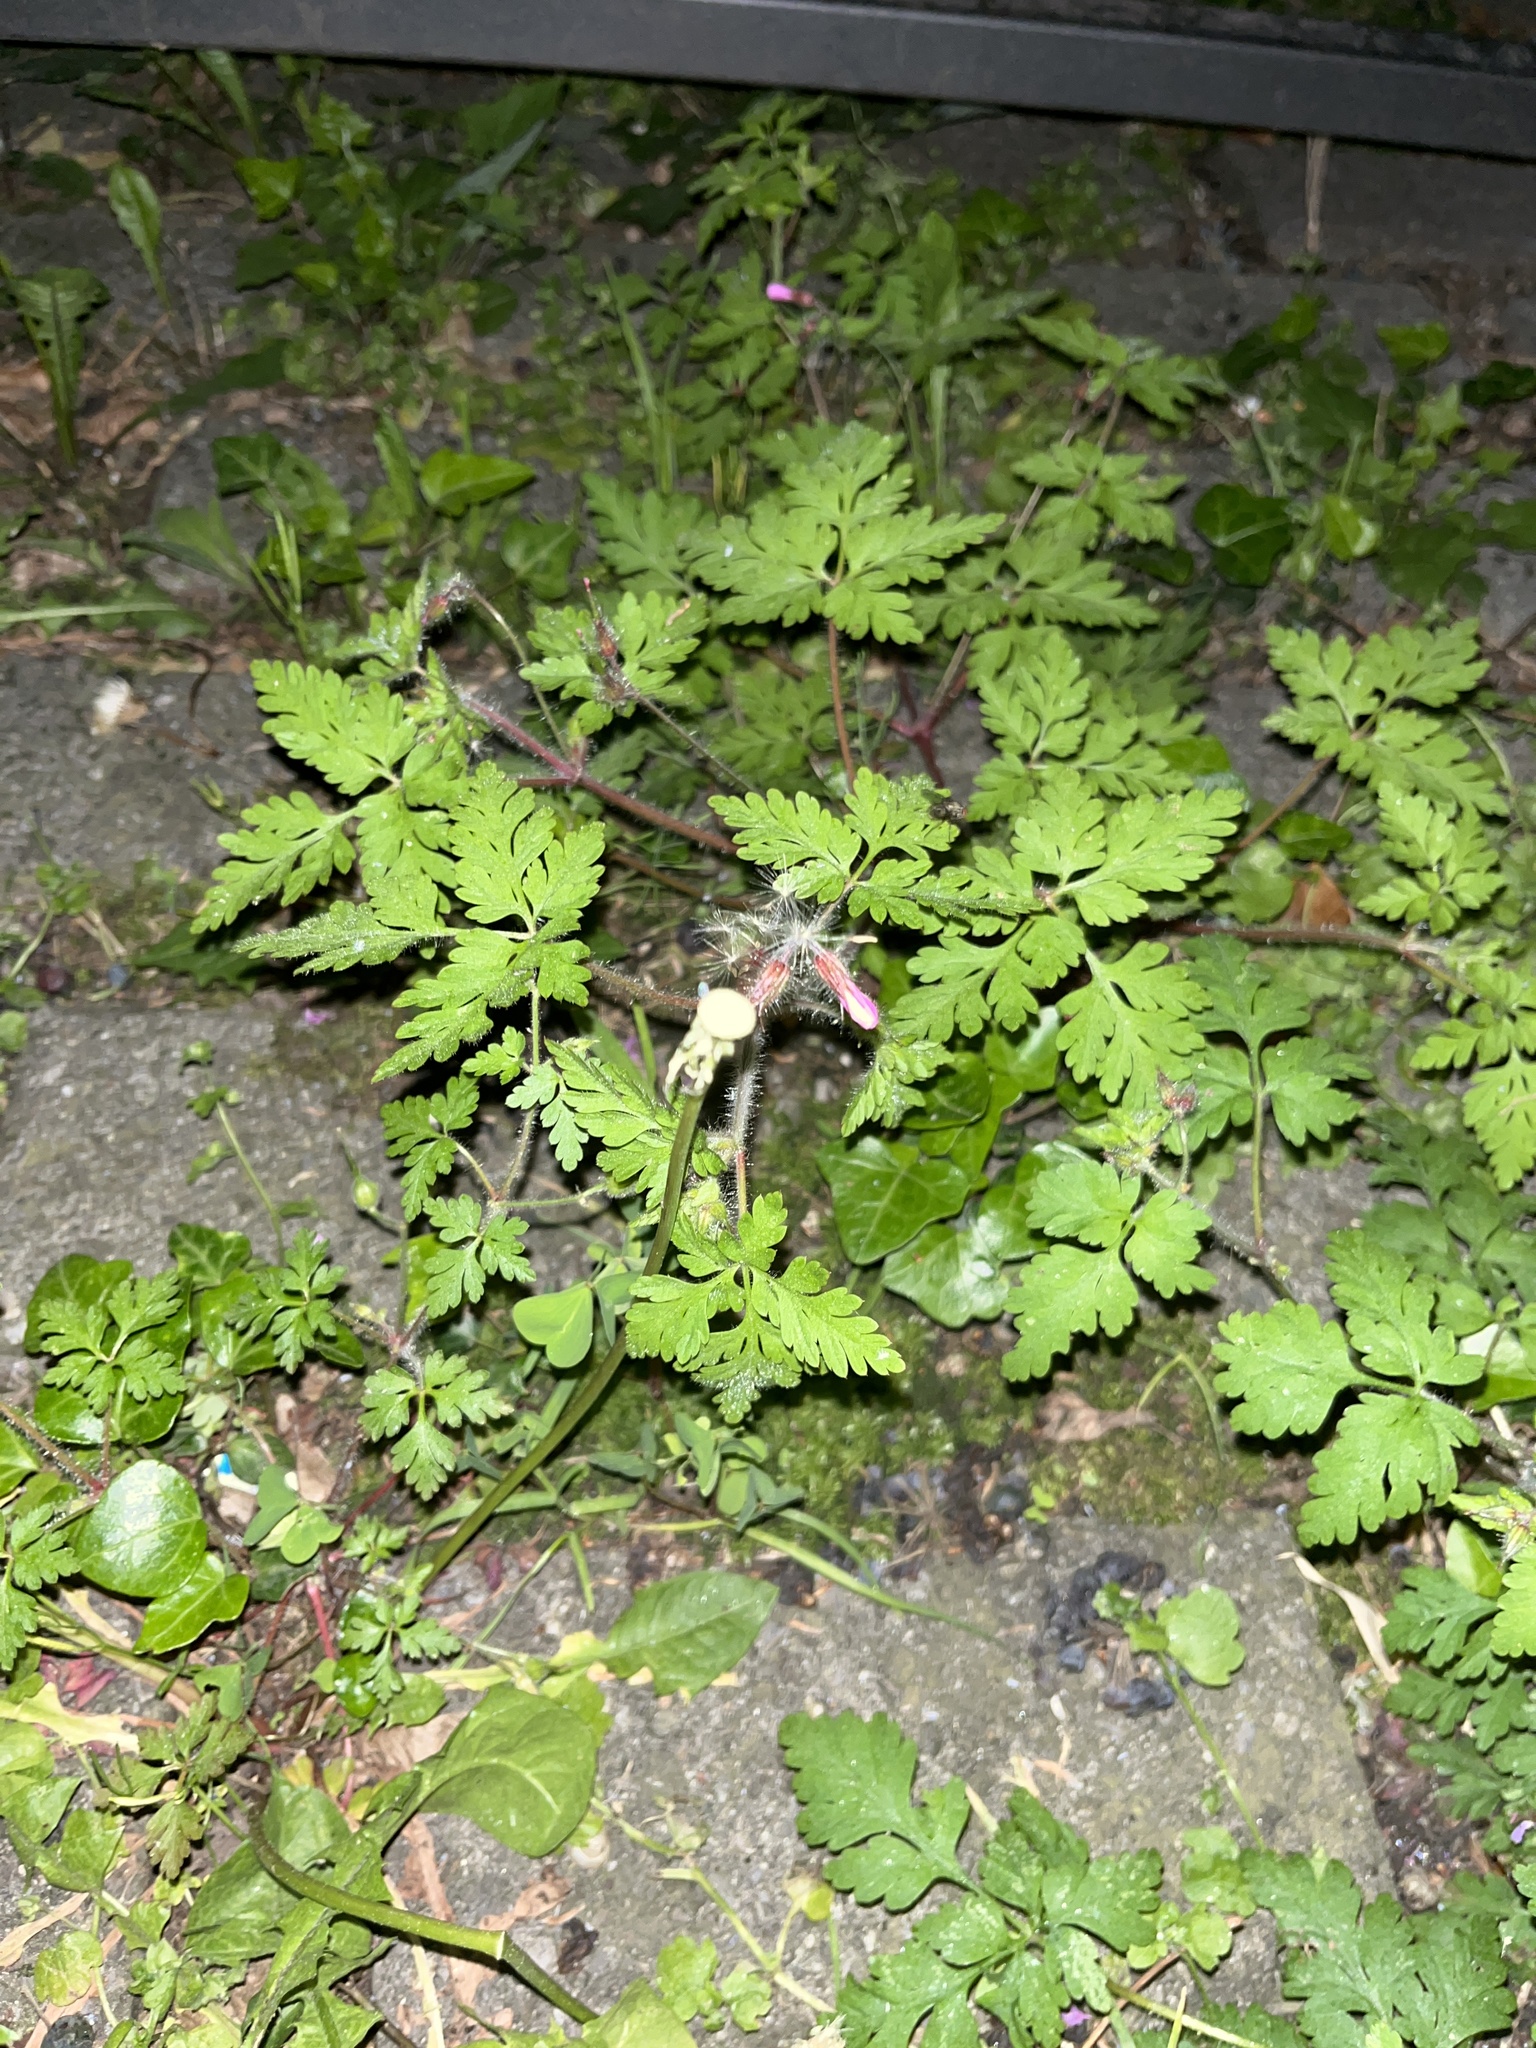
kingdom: Plantae
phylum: Tracheophyta
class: Magnoliopsida
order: Geraniales
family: Geraniaceae
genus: Geranium
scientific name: Geranium robertianum
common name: Herb-robert
